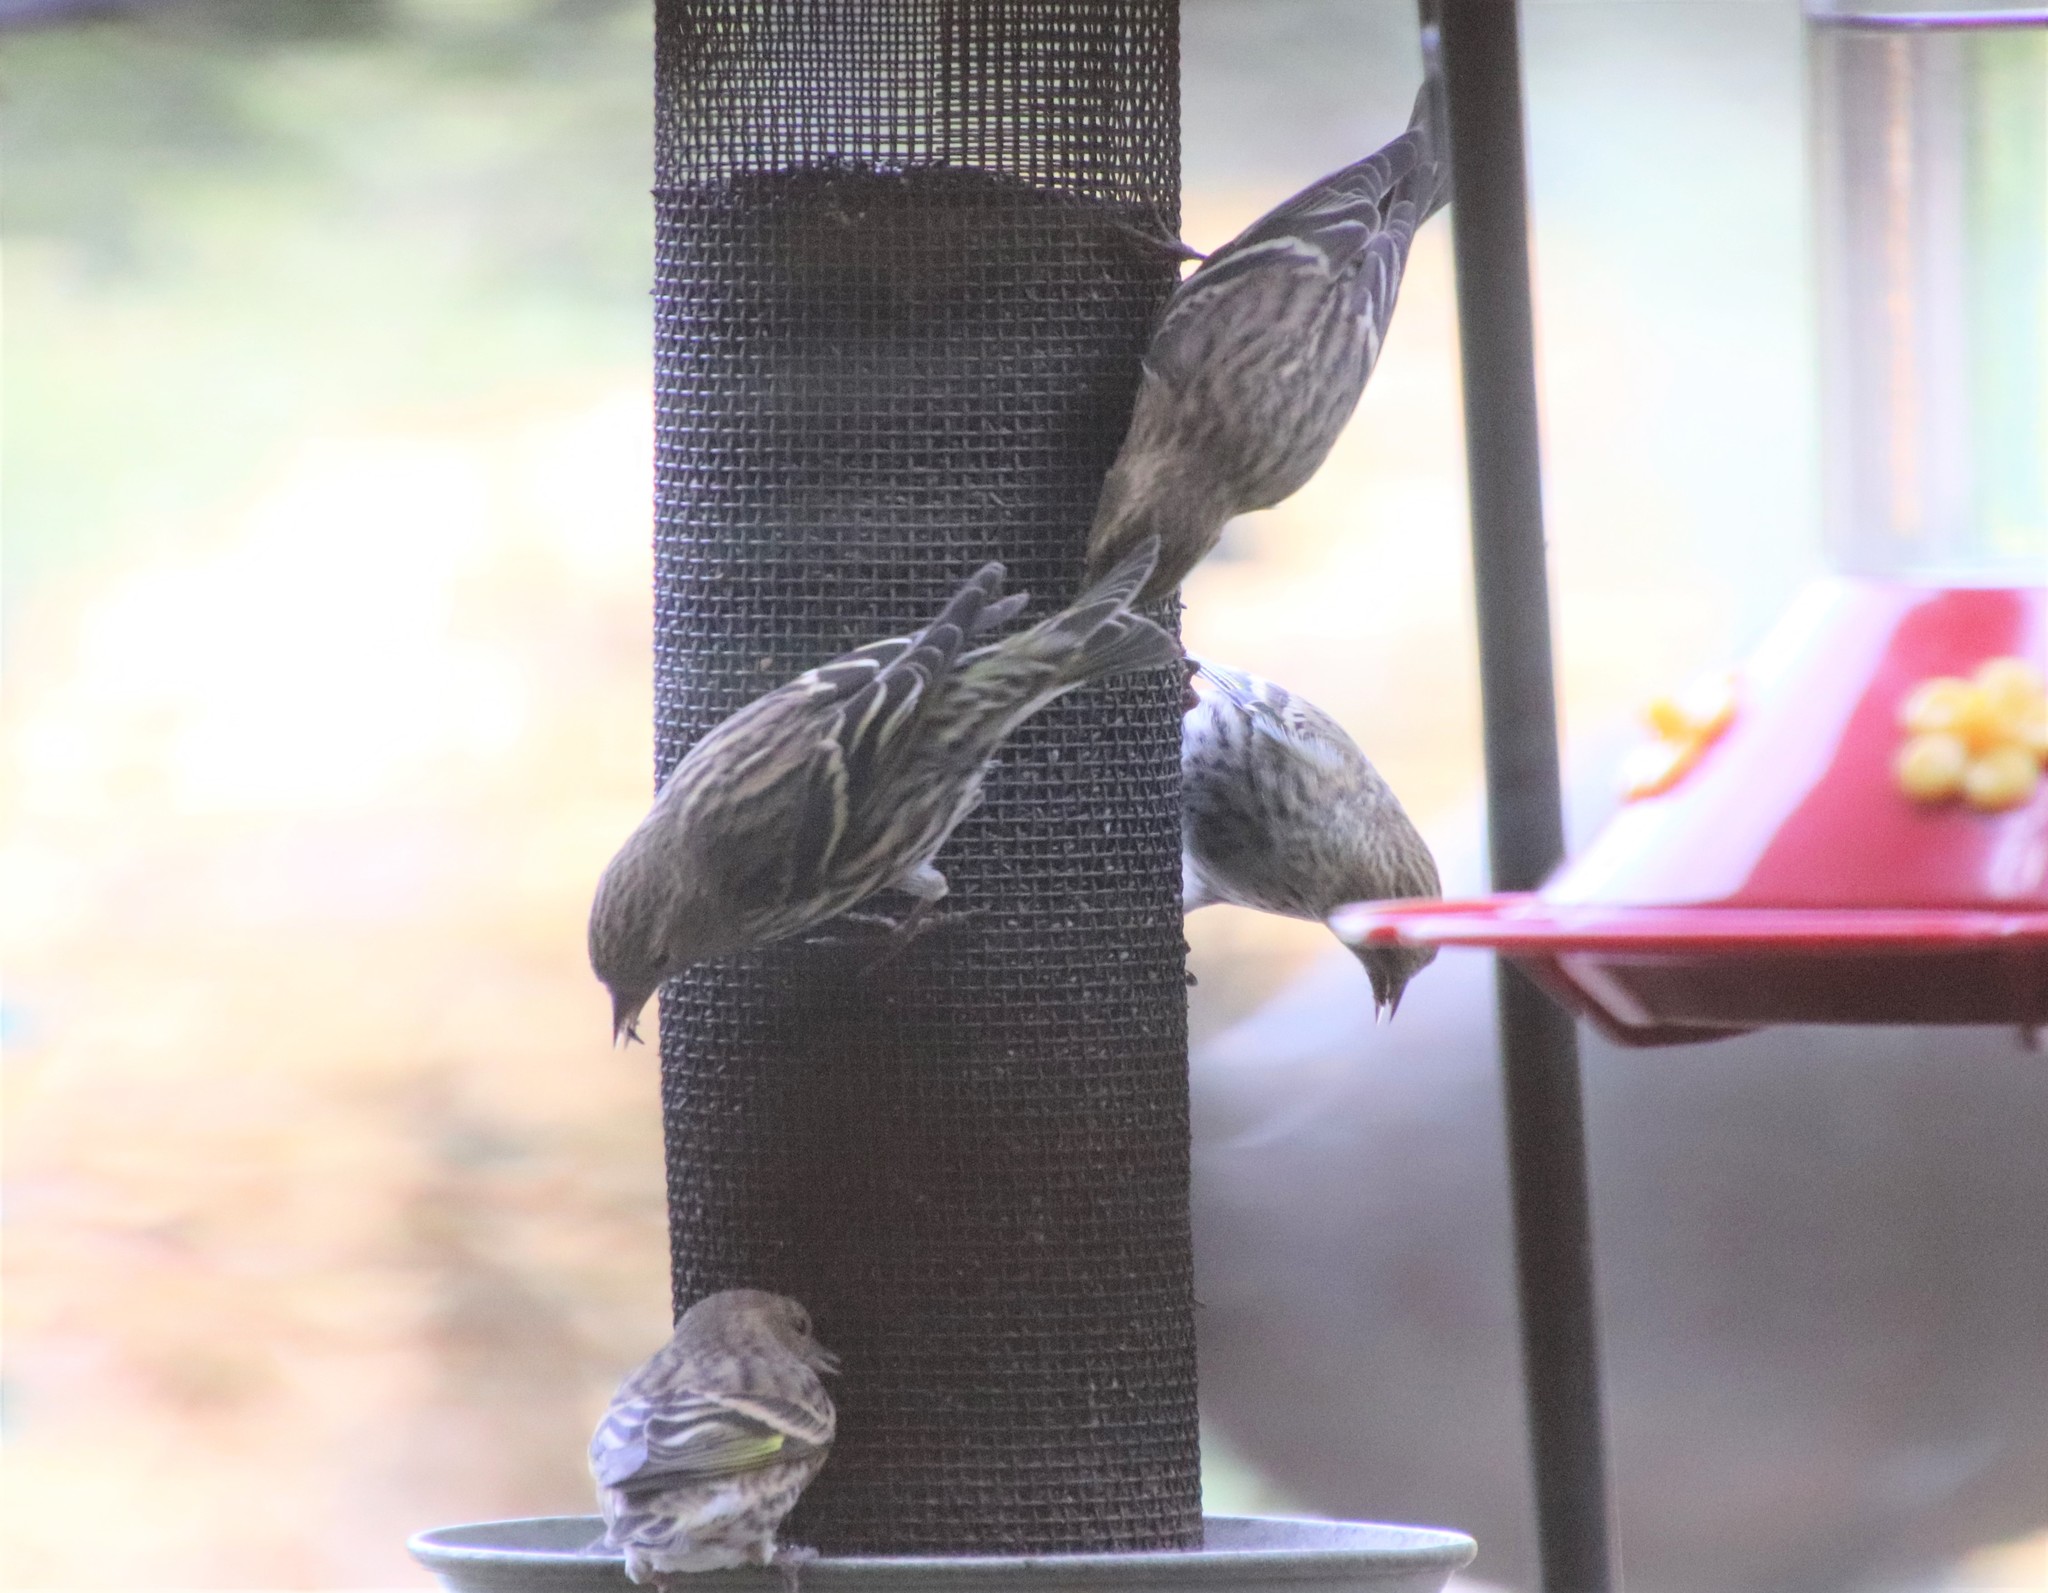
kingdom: Animalia
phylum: Chordata
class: Aves
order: Passeriformes
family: Fringillidae
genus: Spinus
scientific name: Spinus pinus
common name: Pine siskin
